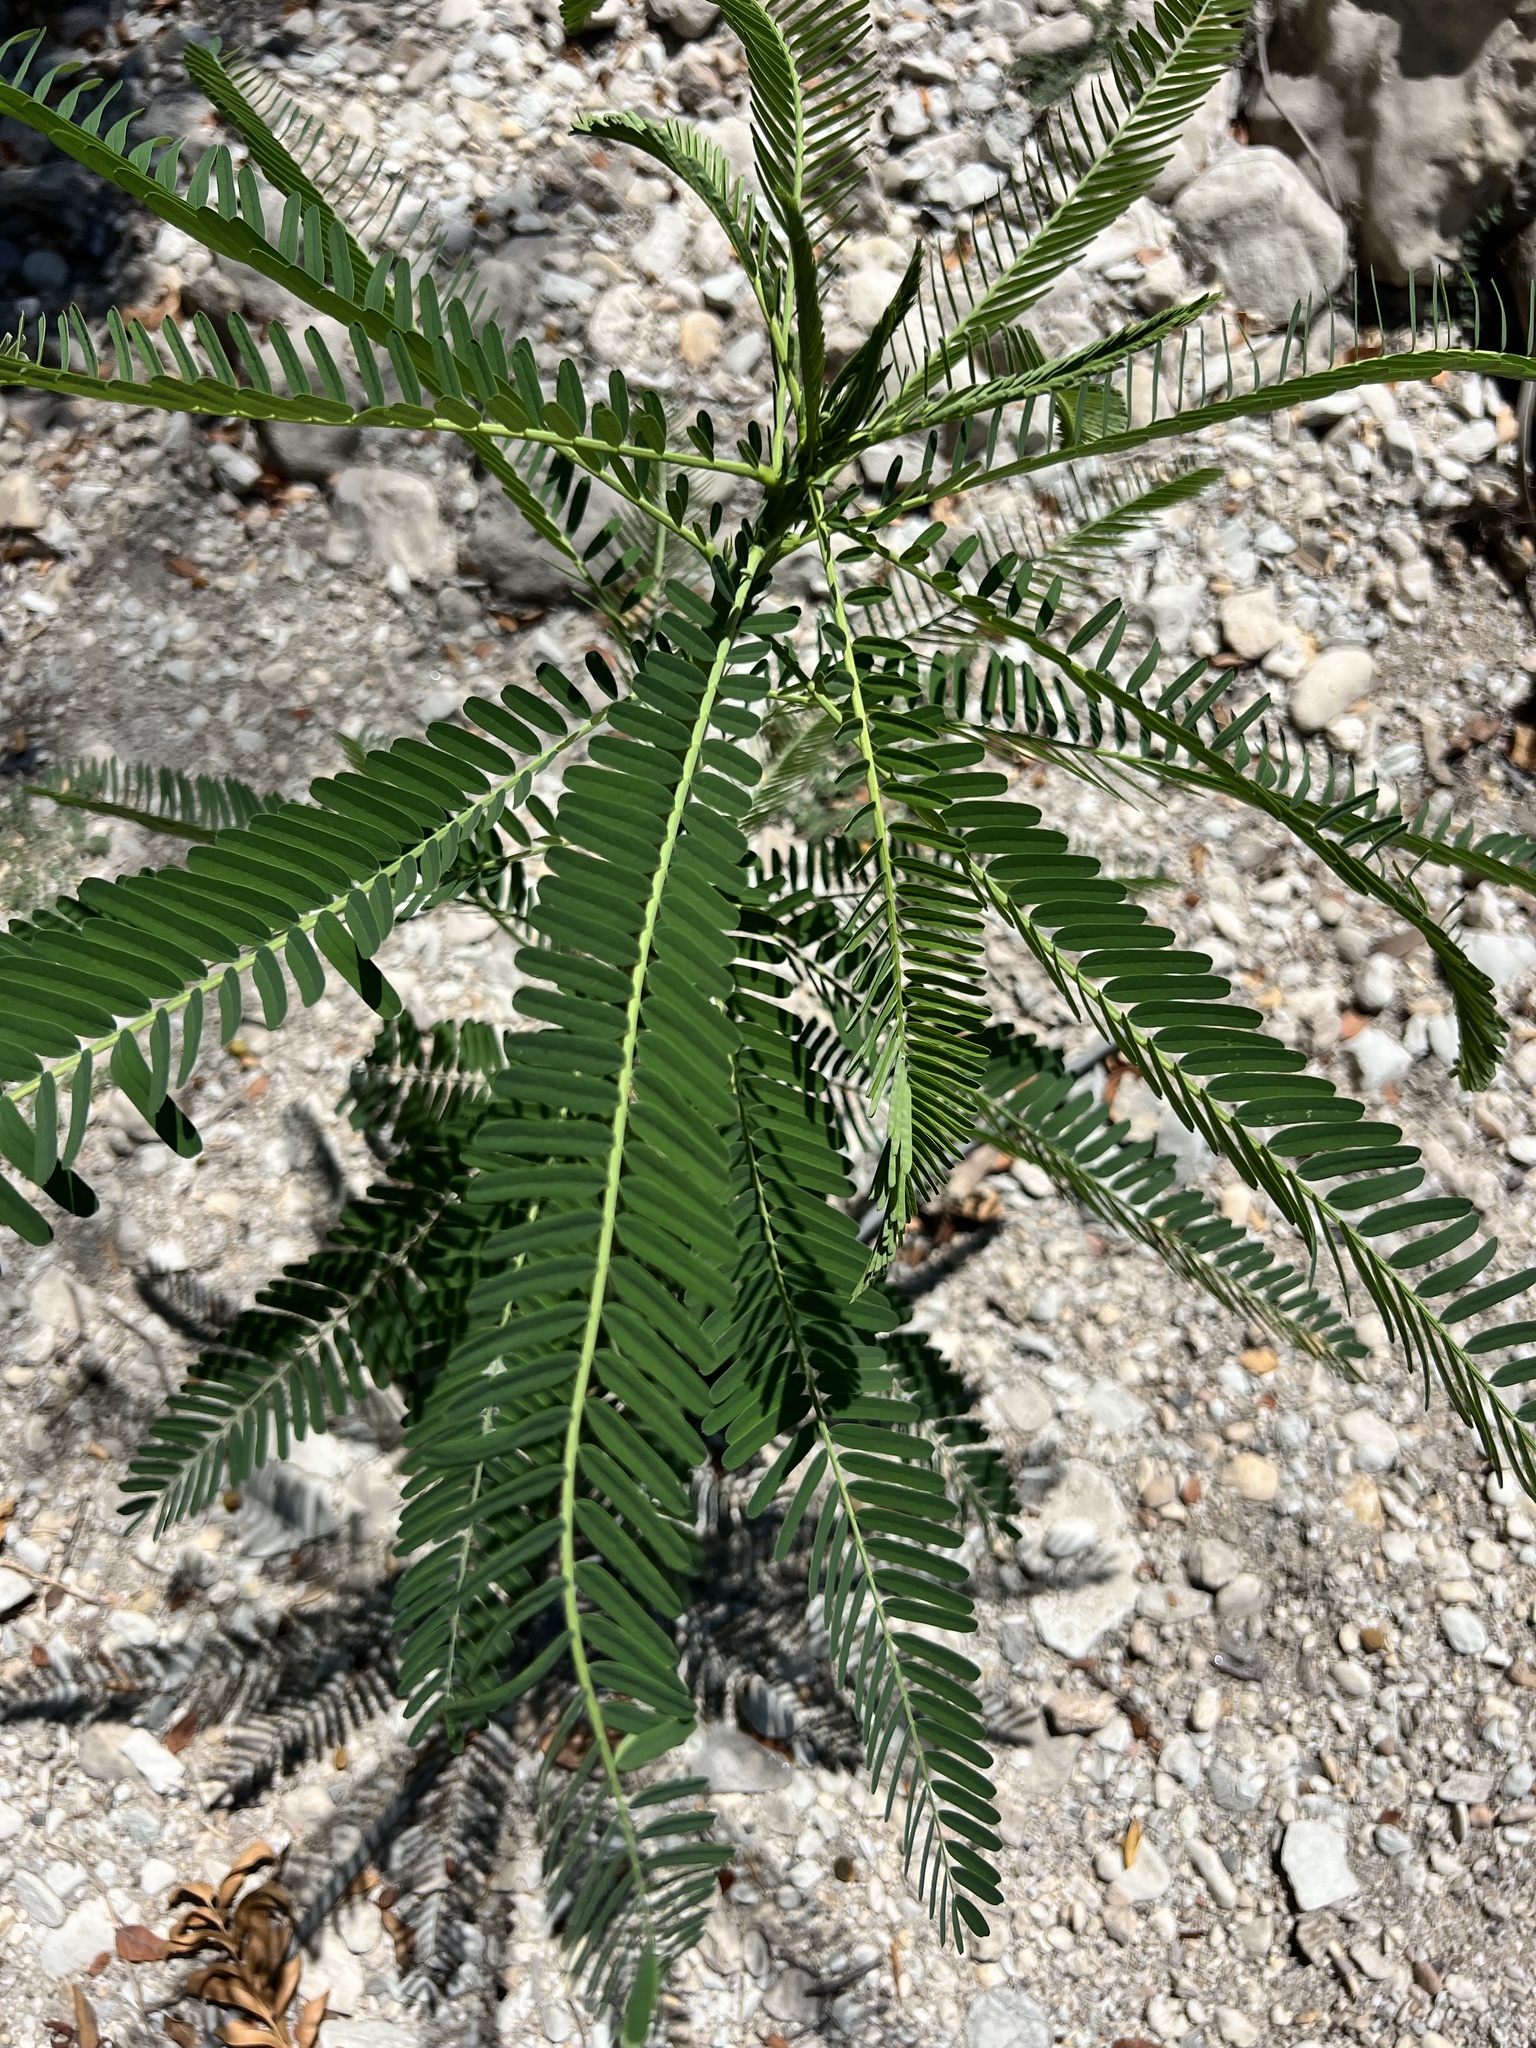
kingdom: Plantae
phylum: Tracheophyta
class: Magnoliopsida
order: Fabales
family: Fabaceae
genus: Sesbania
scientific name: Sesbania herbacea
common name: Bigpod sesbania
